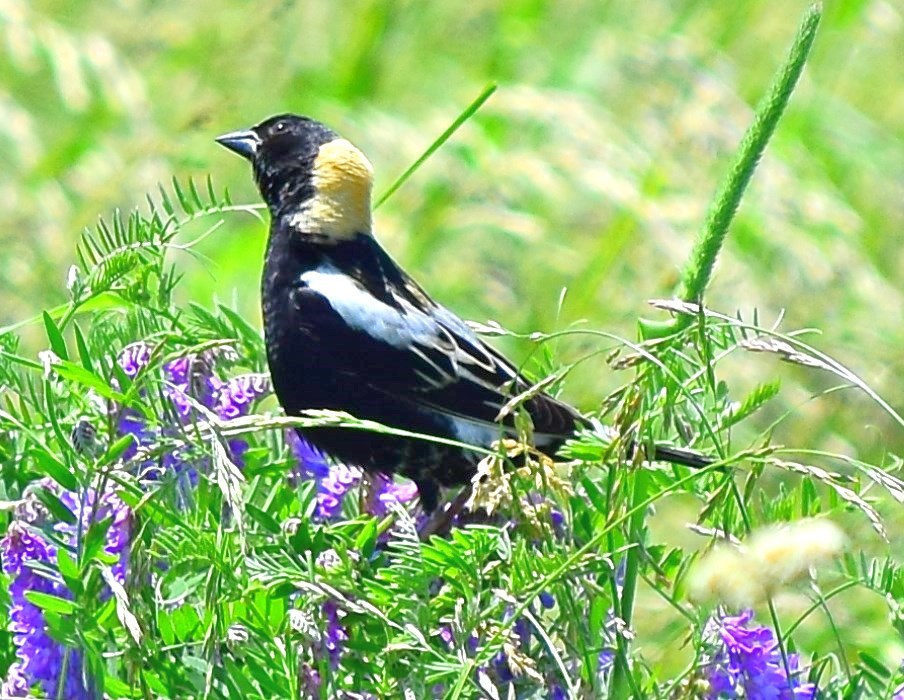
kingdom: Animalia
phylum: Chordata
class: Aves
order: Passeriformes
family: Icteridae
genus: Dolichonyx
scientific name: Dolichonyx oryzivorus
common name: Bobolink
